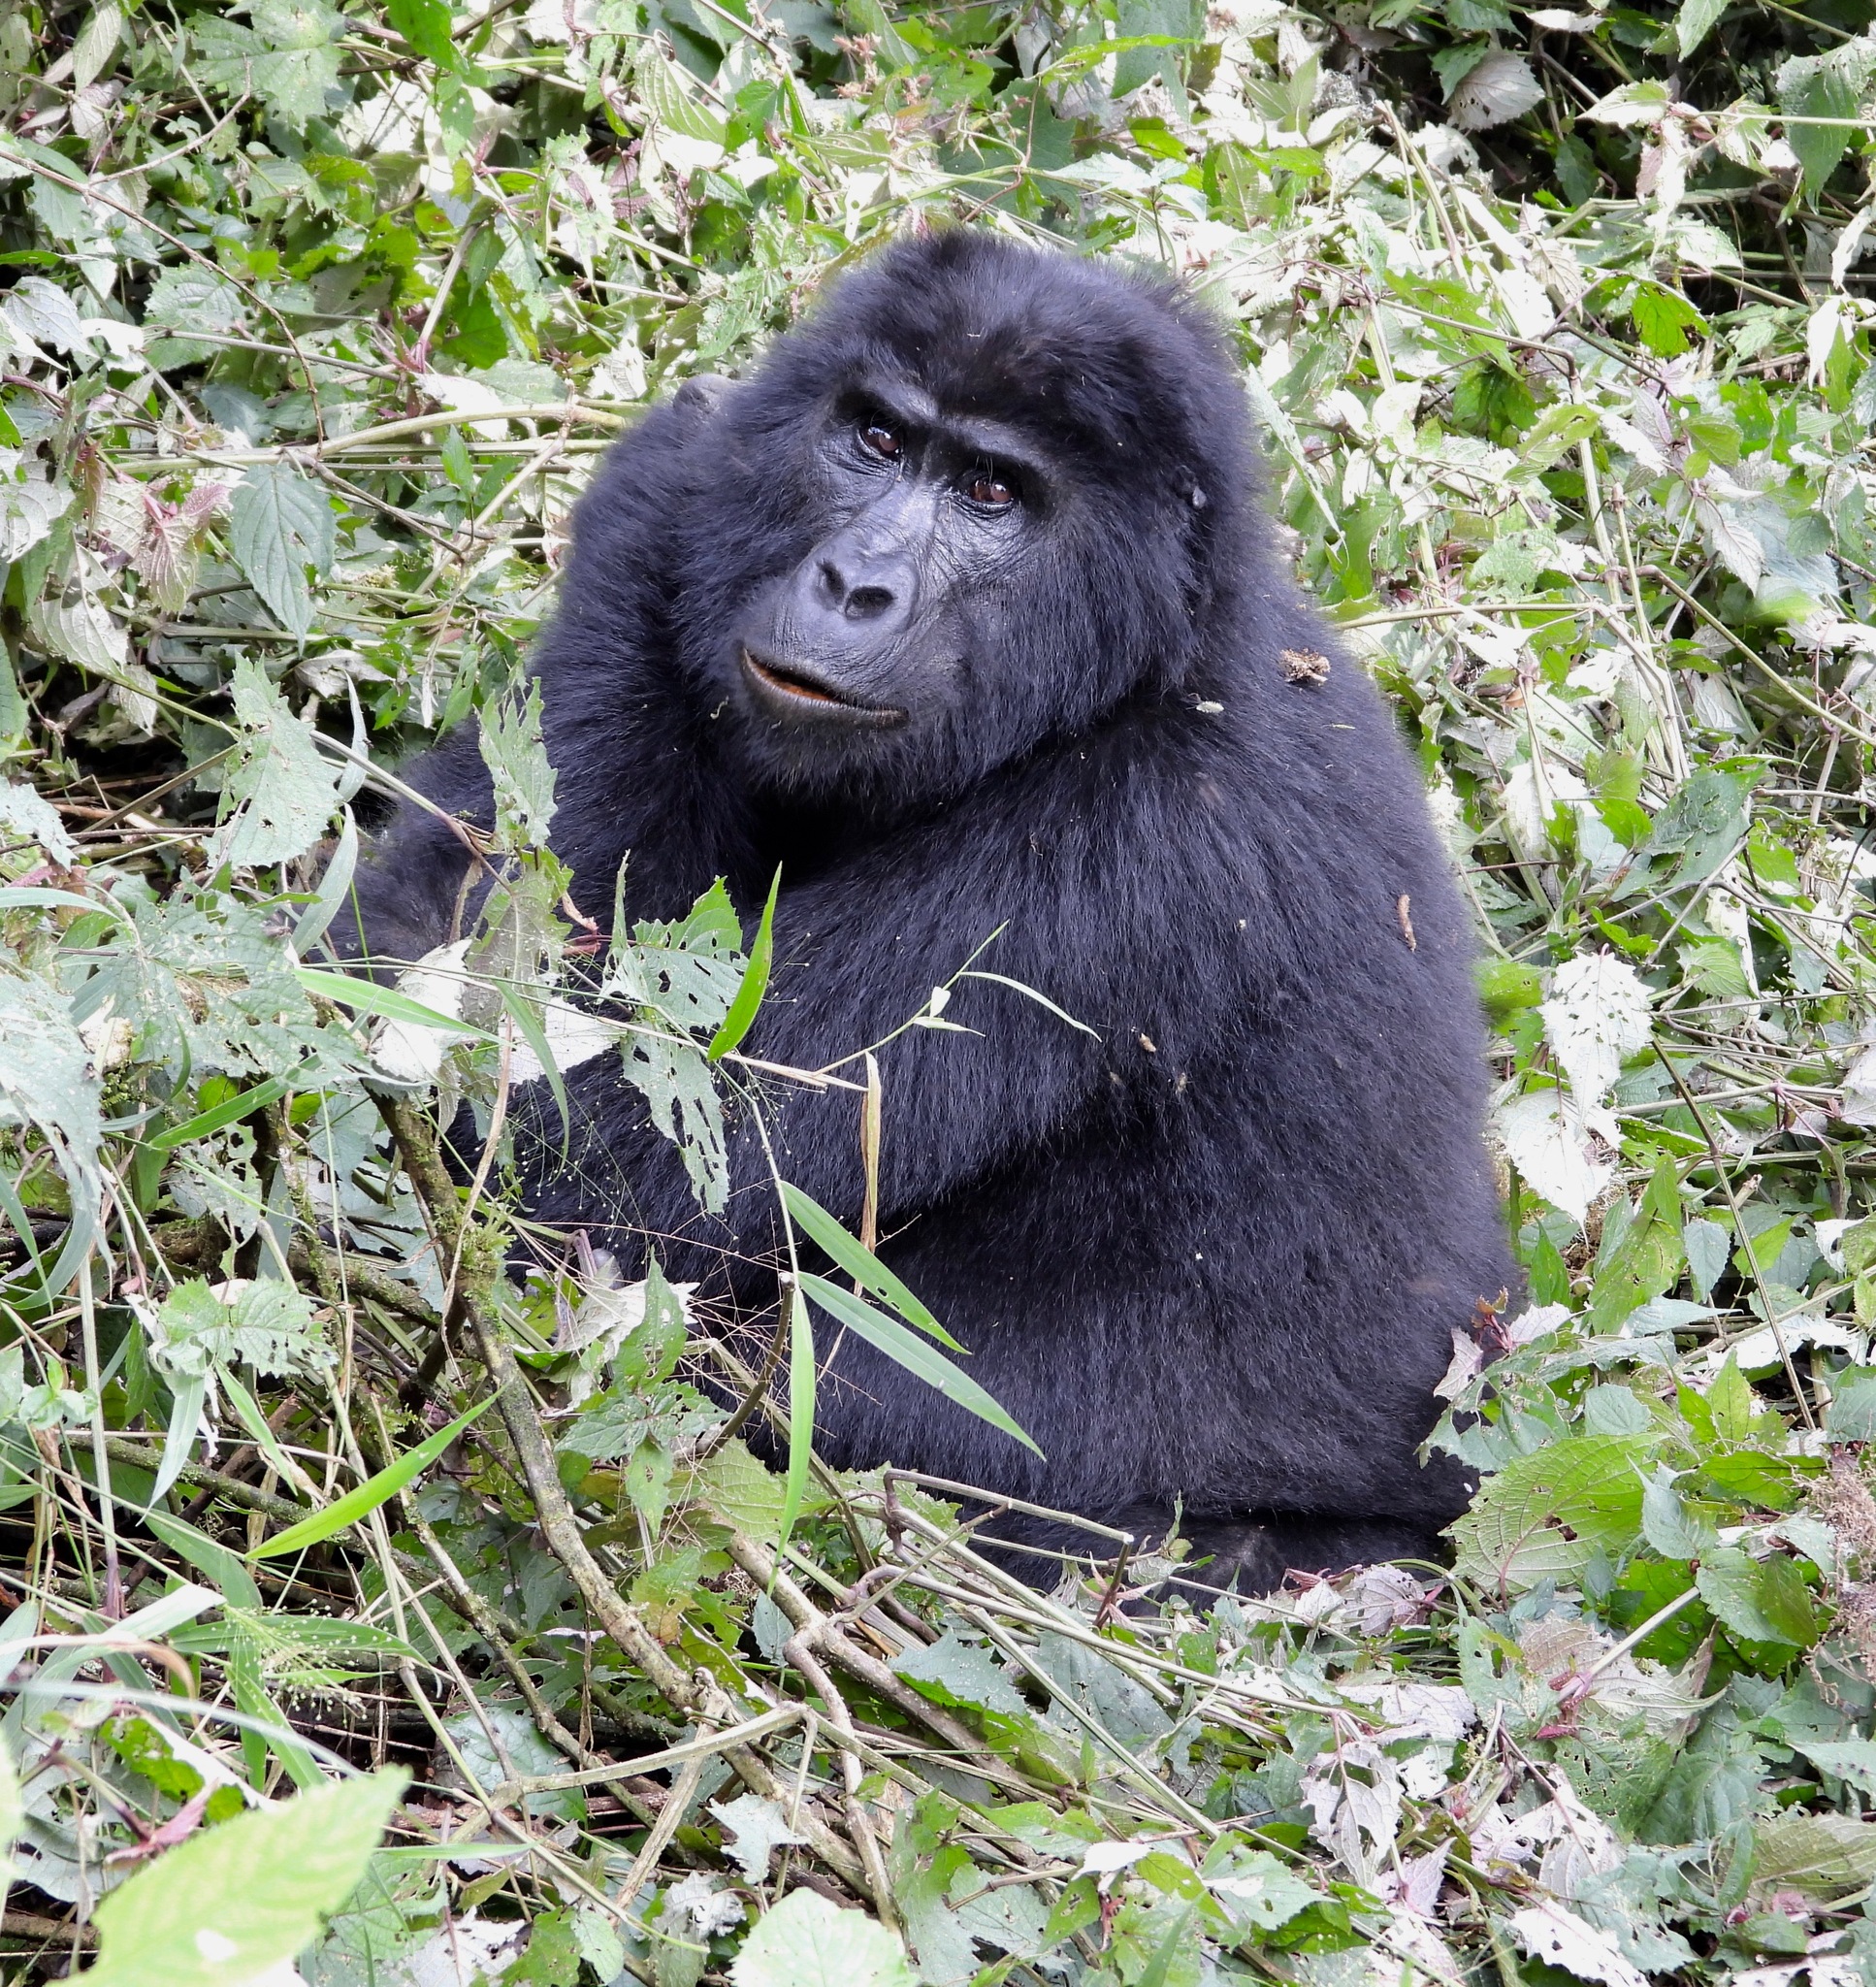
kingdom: Animalia
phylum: Chordata
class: Mammalia
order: Primates
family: Hominidae
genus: Gorilla
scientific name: Gorilla beringei
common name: Eastern gorilla
